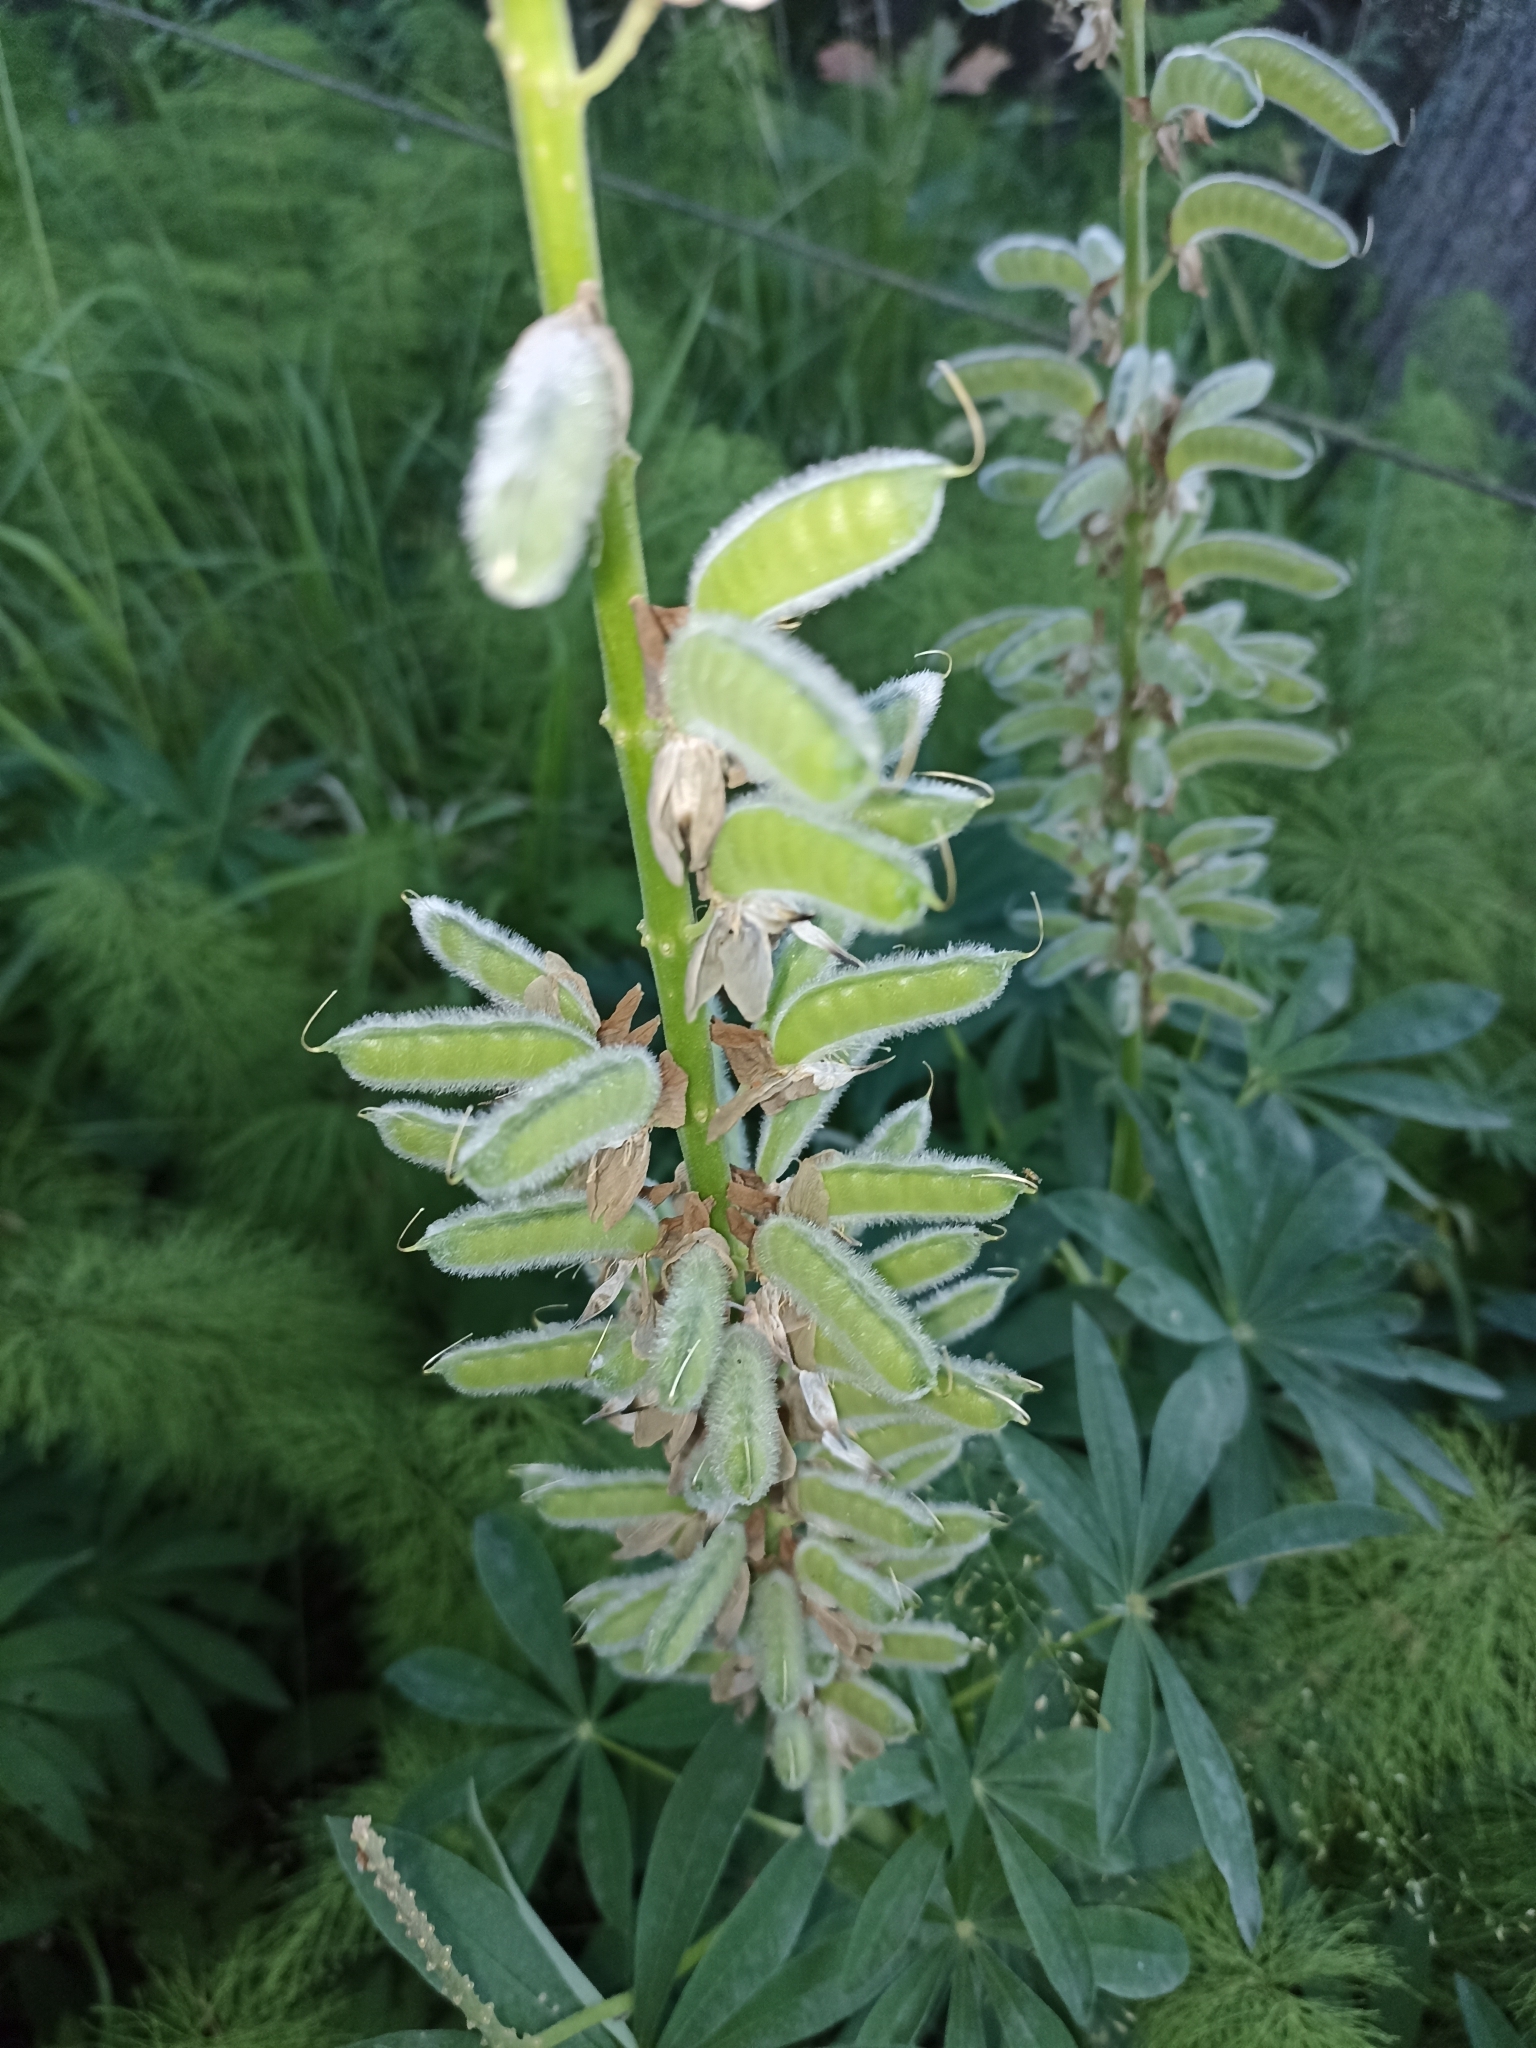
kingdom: Plantae
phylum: Tracheophyta
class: Magnoliopsida
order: Fabales
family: Fabaceae
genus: Lupinus
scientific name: Lupinus polyphyllus
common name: Garden lupin
